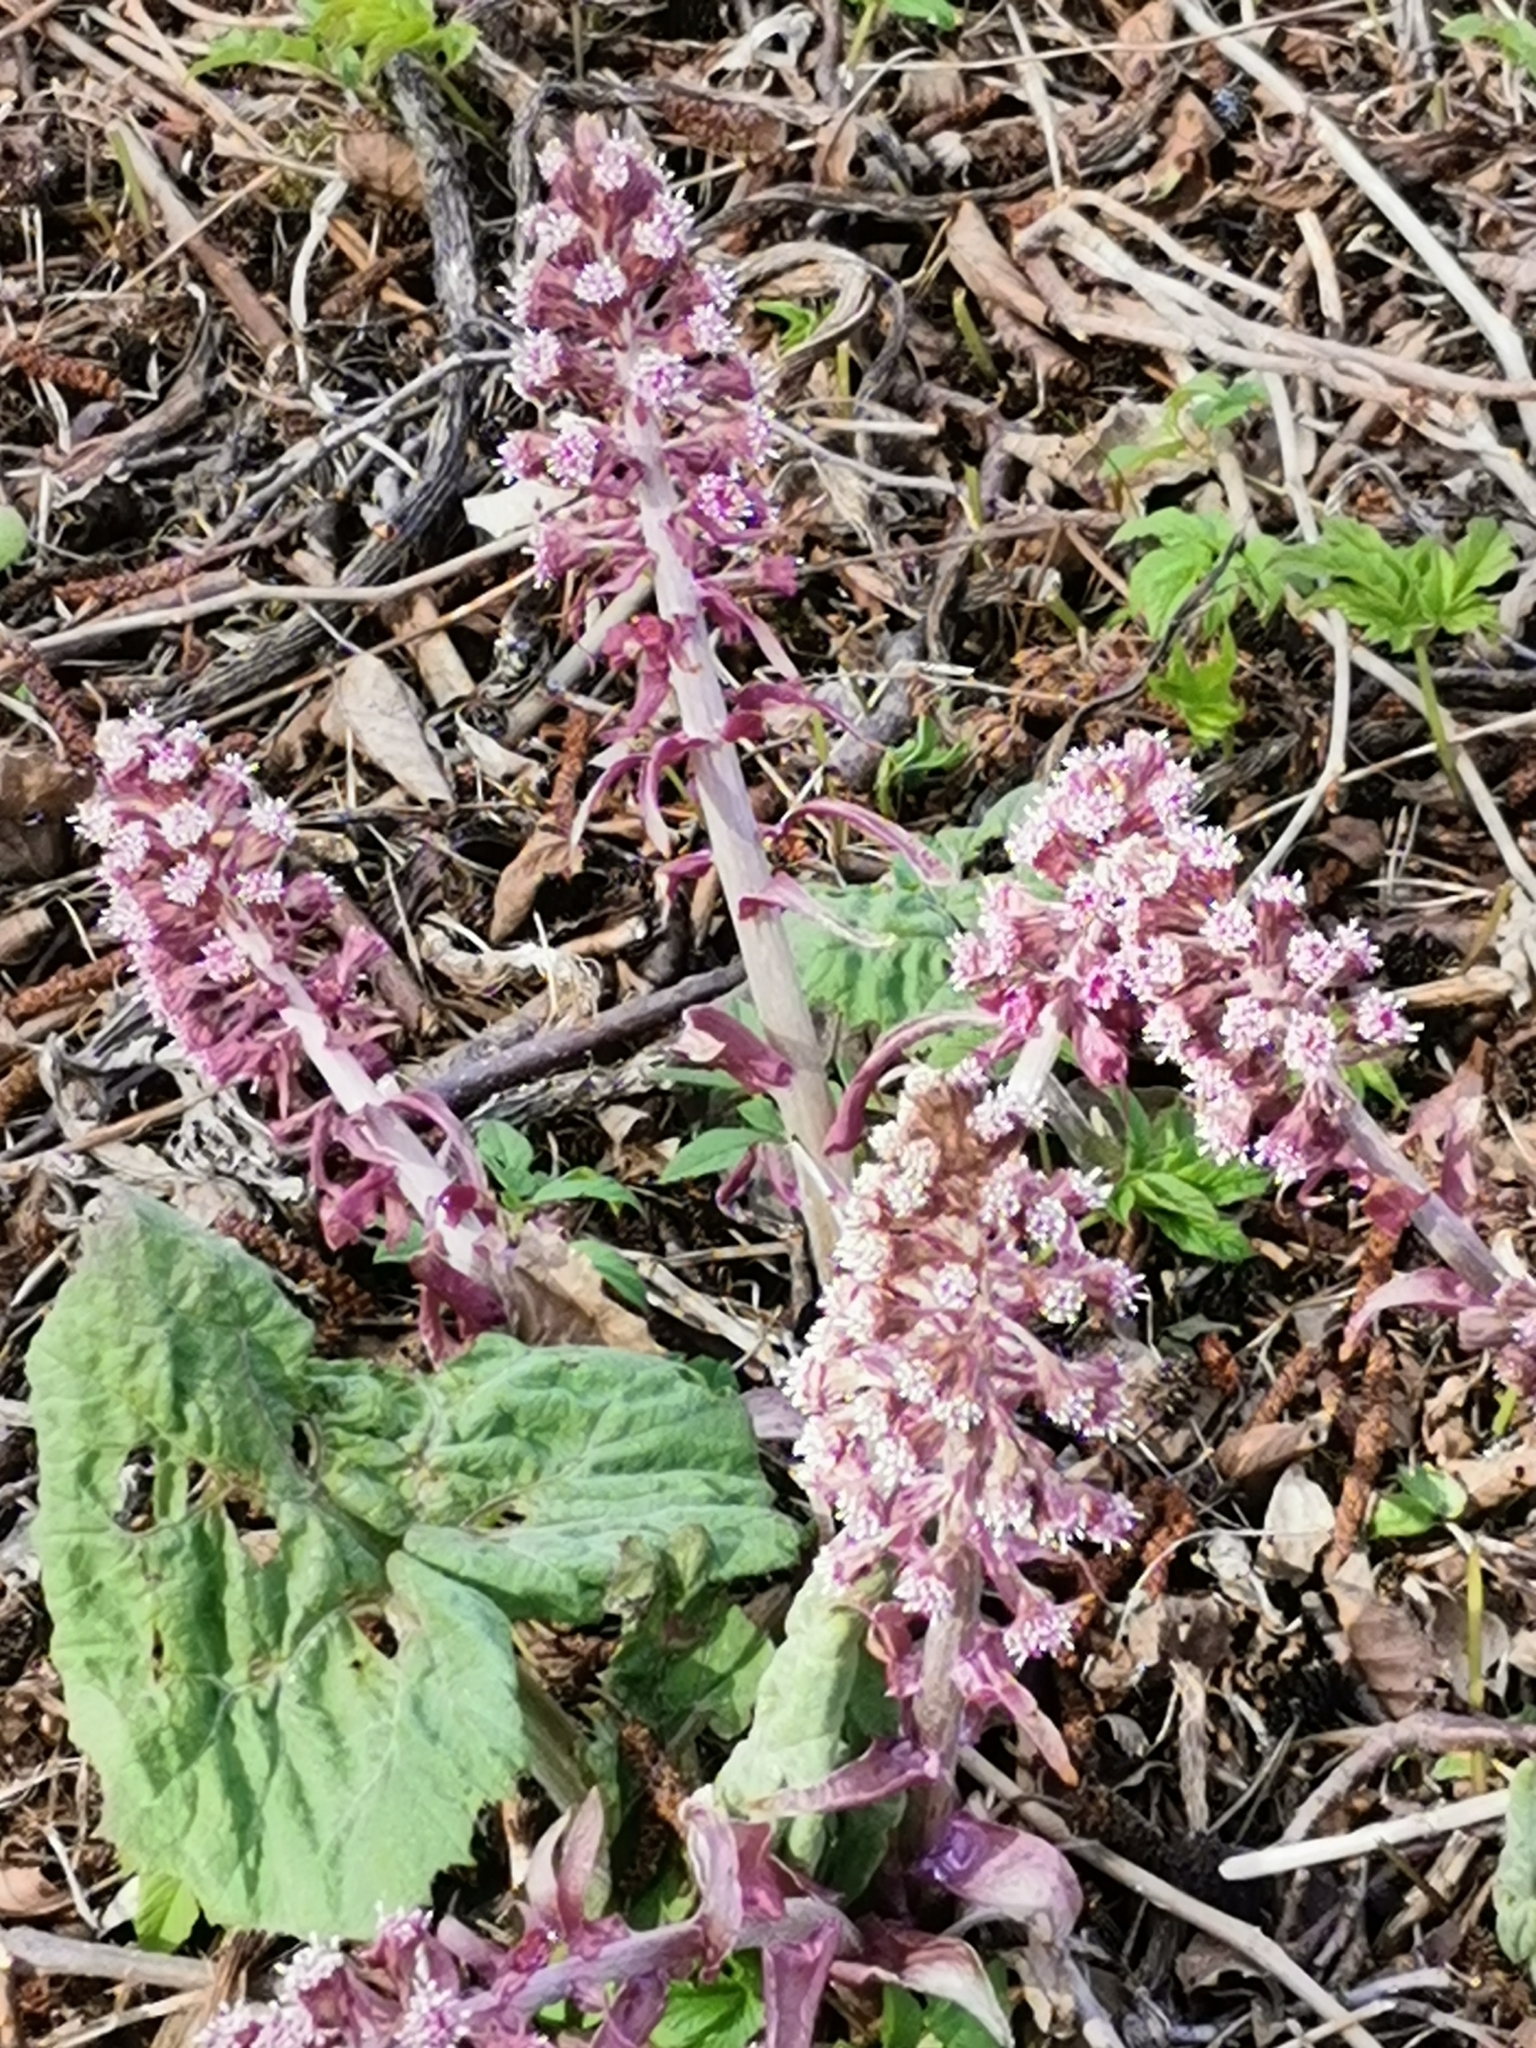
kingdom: Plantae
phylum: Tracheophyta
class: Magnoliopsida
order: Asterales
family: Asteraceae
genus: Petasites
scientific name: Petasites hybridus
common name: Butterbur
